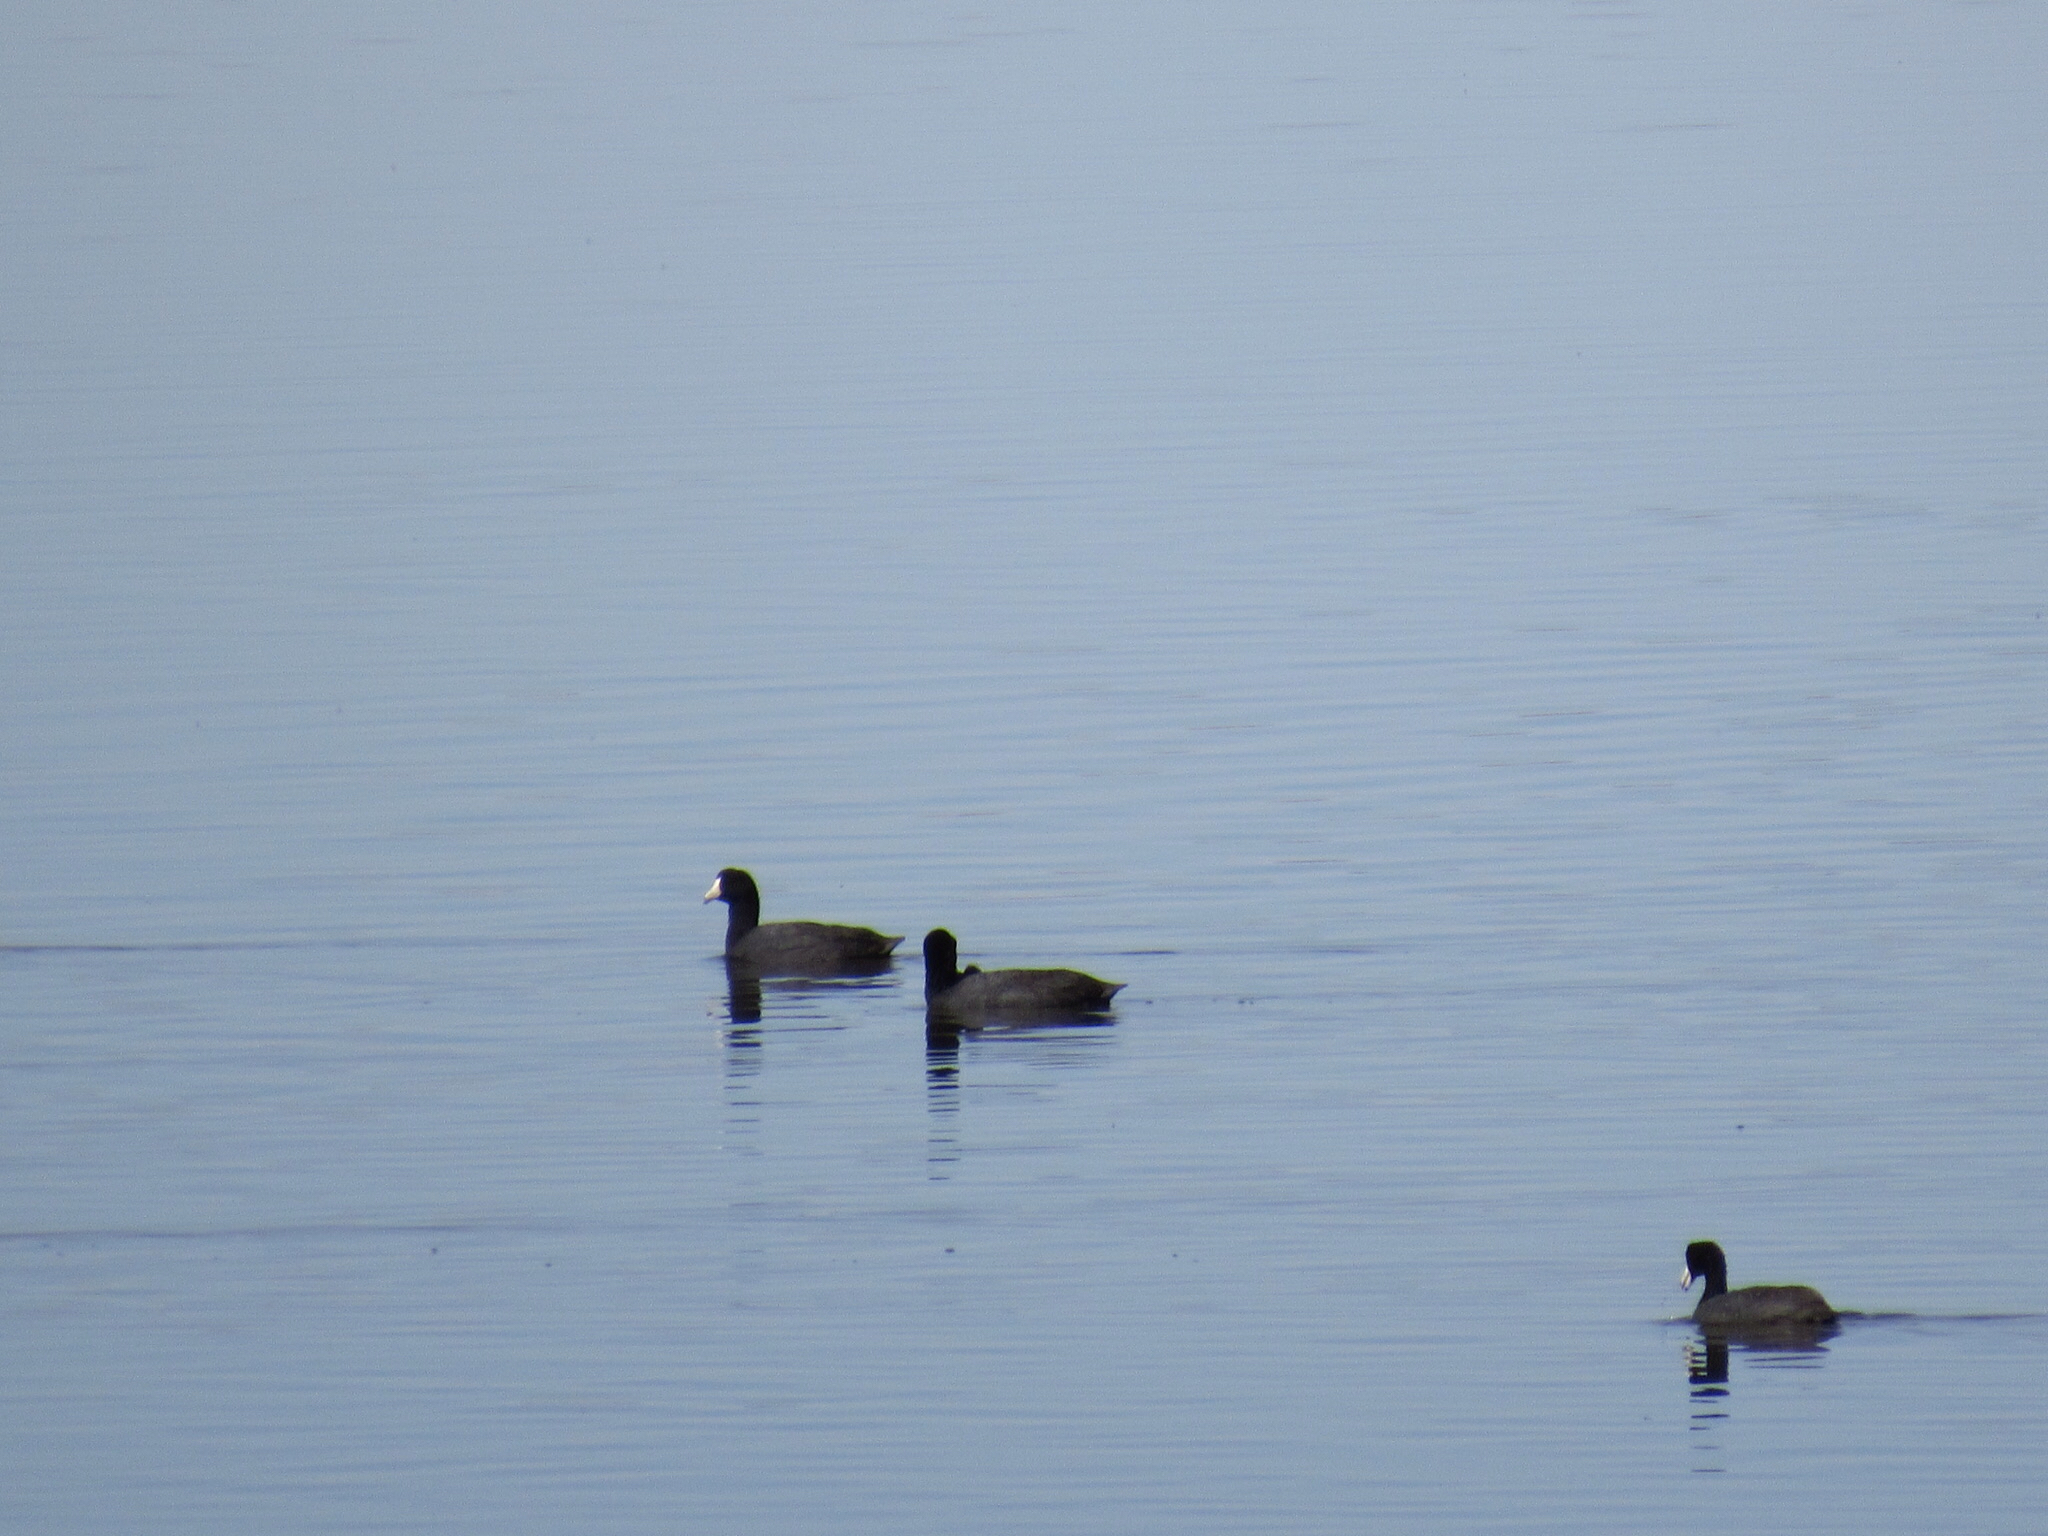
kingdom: Animalia
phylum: Chordata
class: Aves
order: Gruiformes
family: Rallidae
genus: Fulica
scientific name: Fulica americana
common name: American coot
